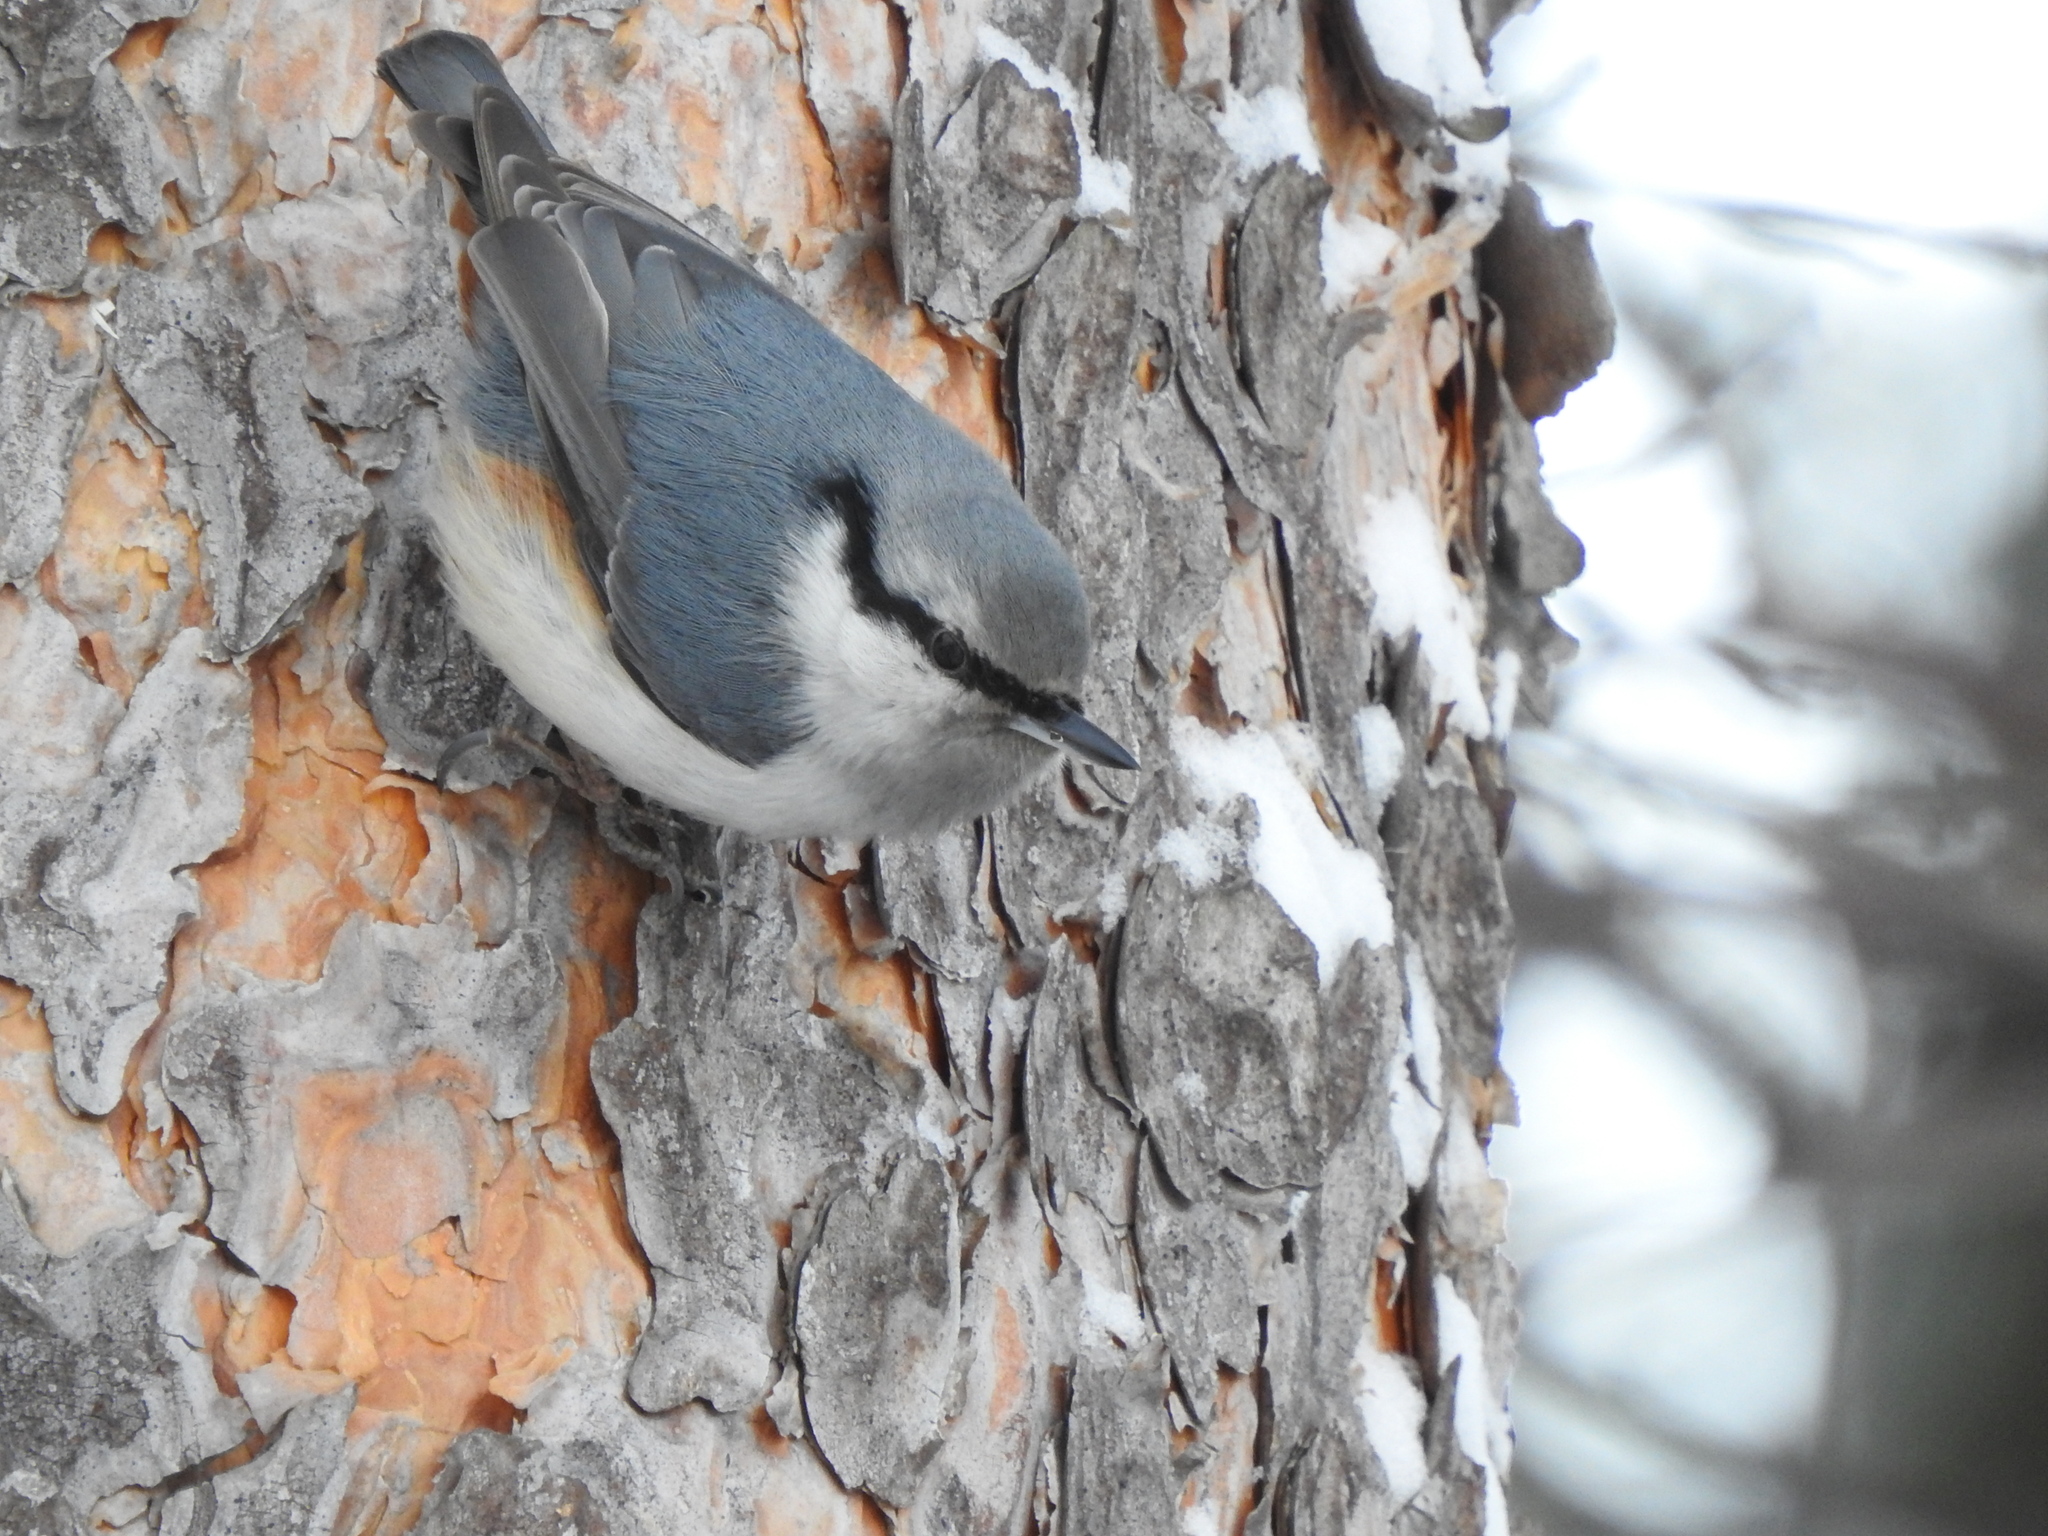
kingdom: Animalia
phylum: Chordata
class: Aves
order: Passeriformes
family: Sittidae
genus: Sitta
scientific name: Sitta europaea
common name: Eurasian nuthatch
